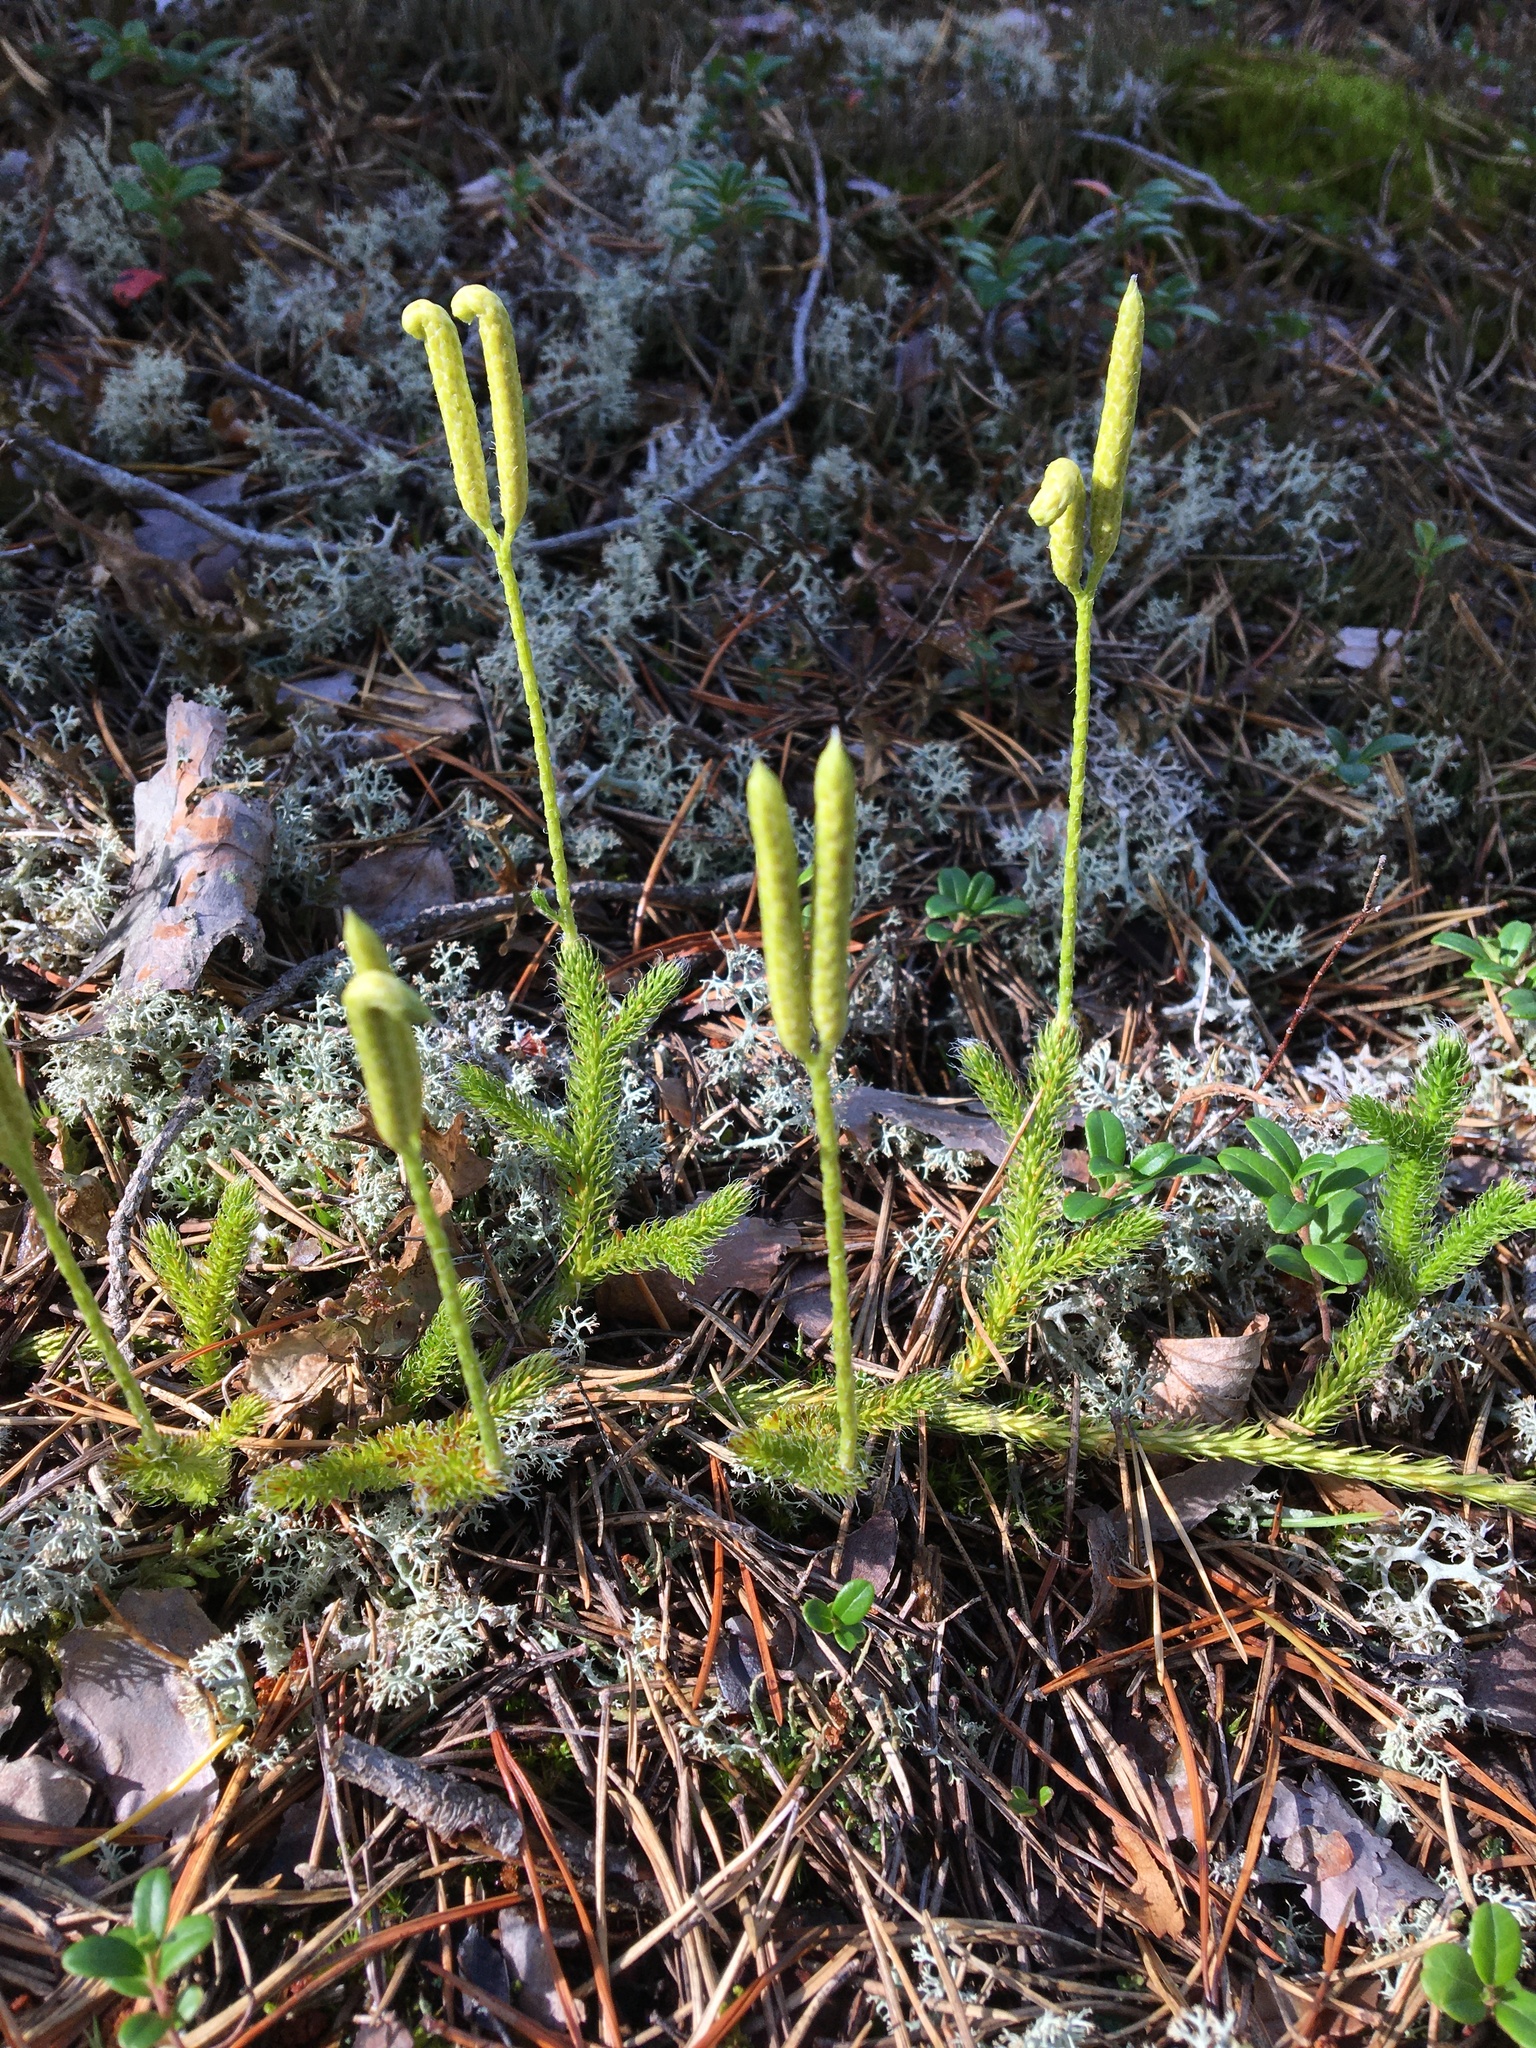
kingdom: Plantae
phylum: Tracheophyta
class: Lycopodiopsida
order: Lycopodiales
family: Lycopodiaceae
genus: Lycopodium
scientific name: Lycopodium clavatum
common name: Stag's-horn clubmoss
